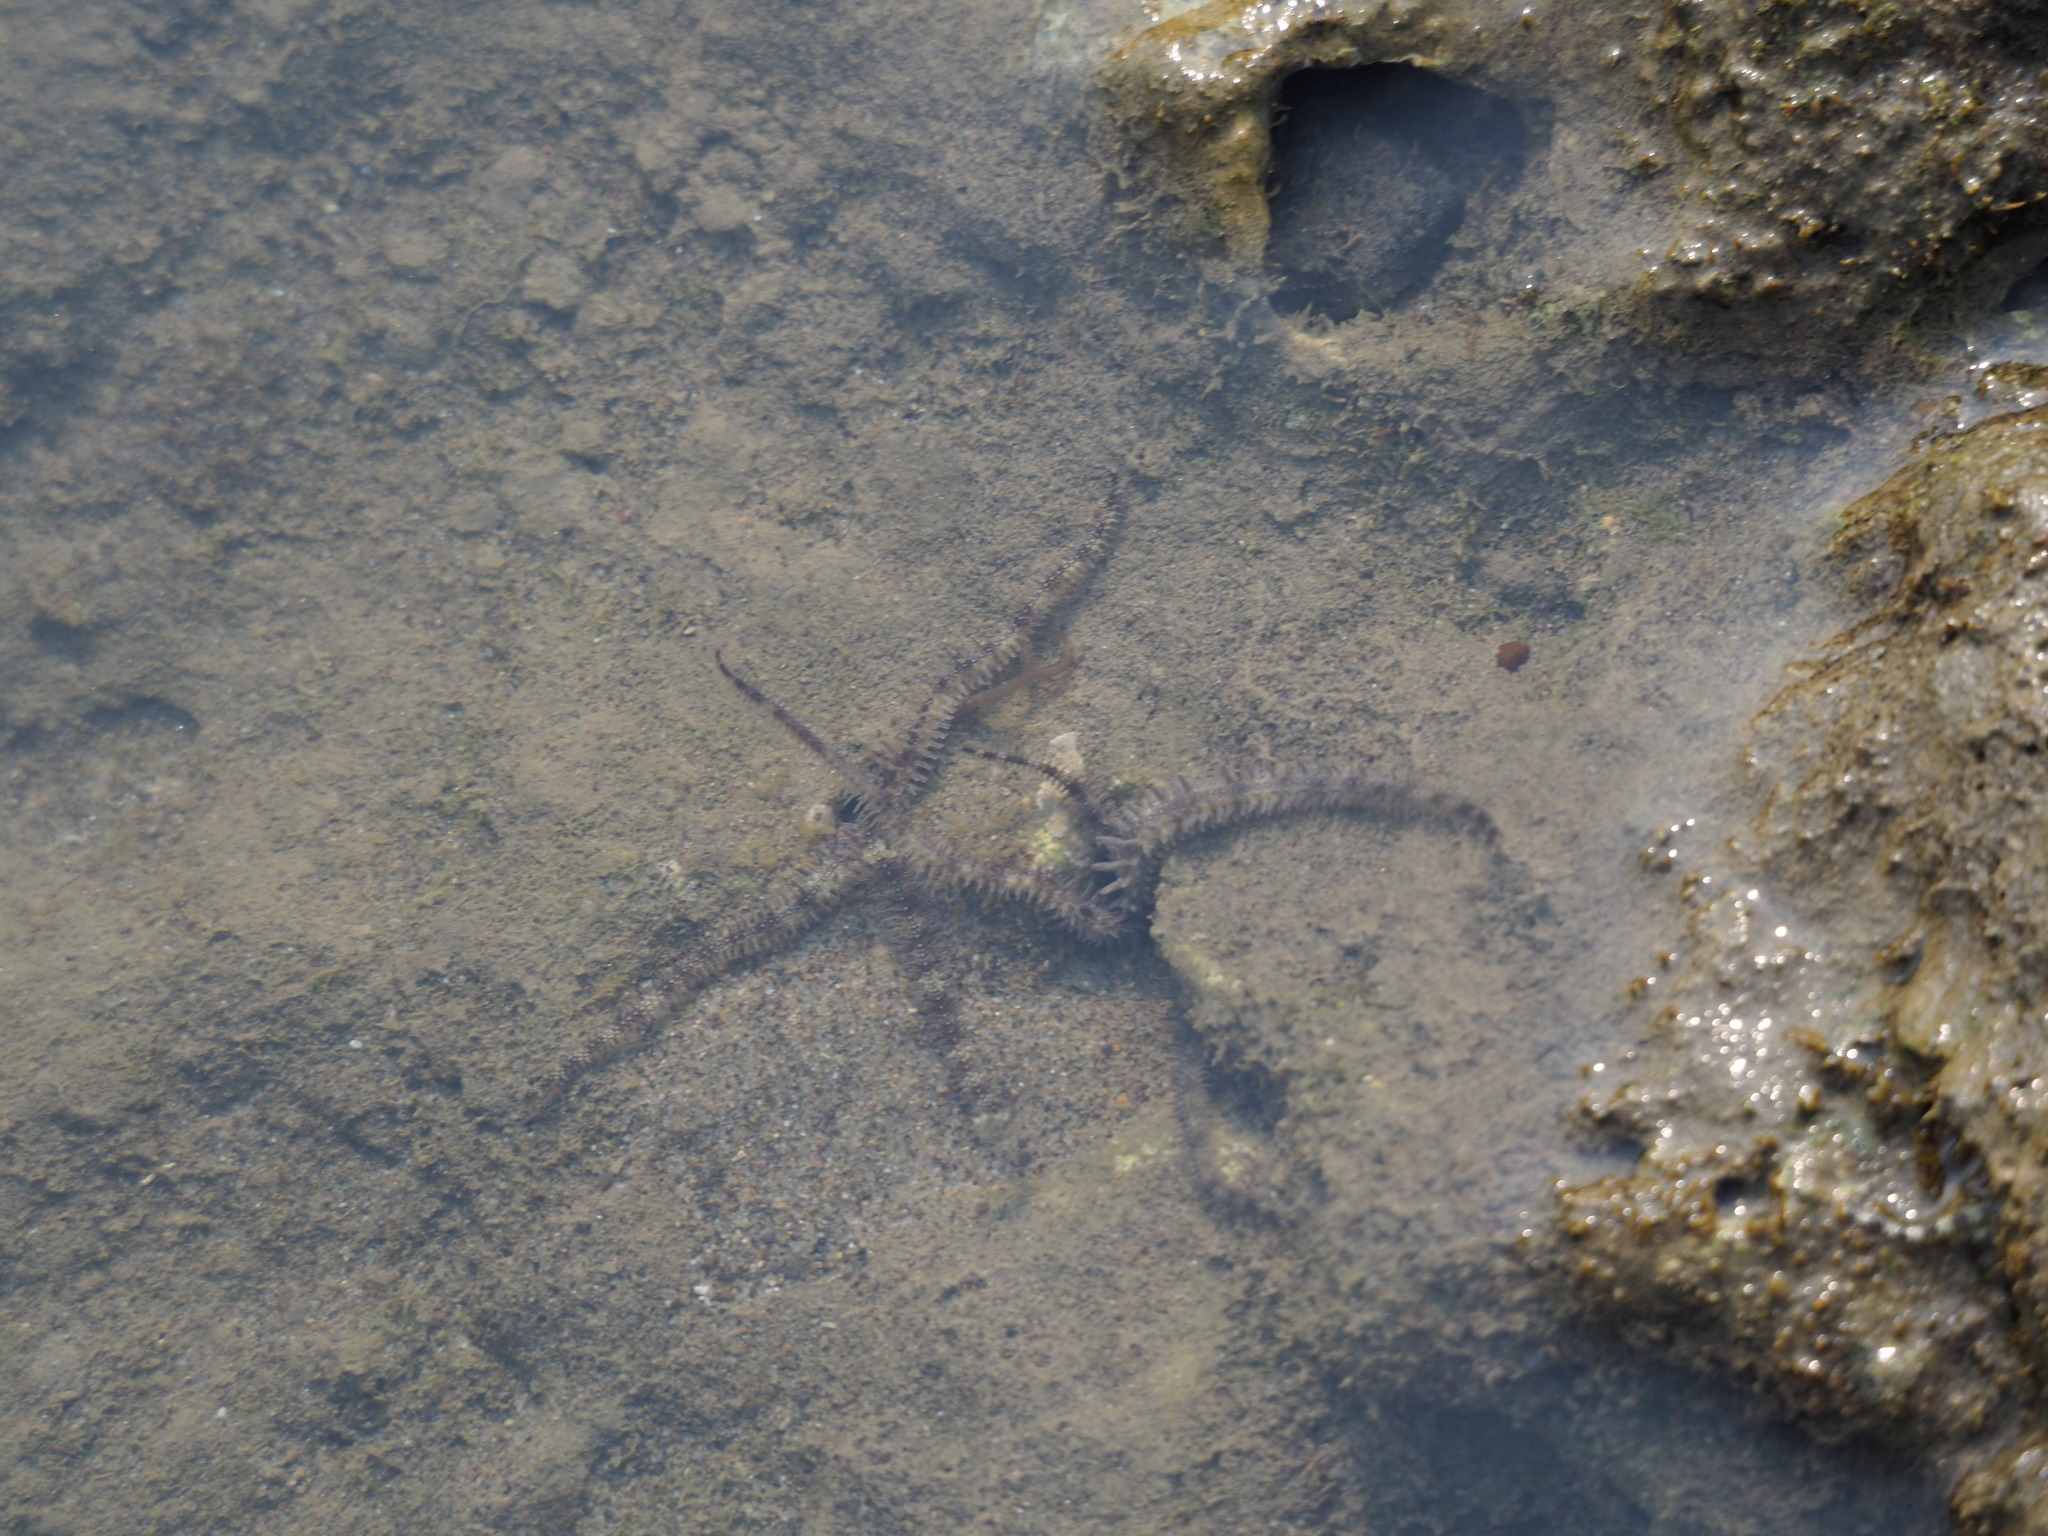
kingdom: Animalia
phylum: Echinodermata
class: Ophiuroidea
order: Ophiacanthida
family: Ophiocomidae
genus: Ophiocoma
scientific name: Ophiocoma scolopendrina
